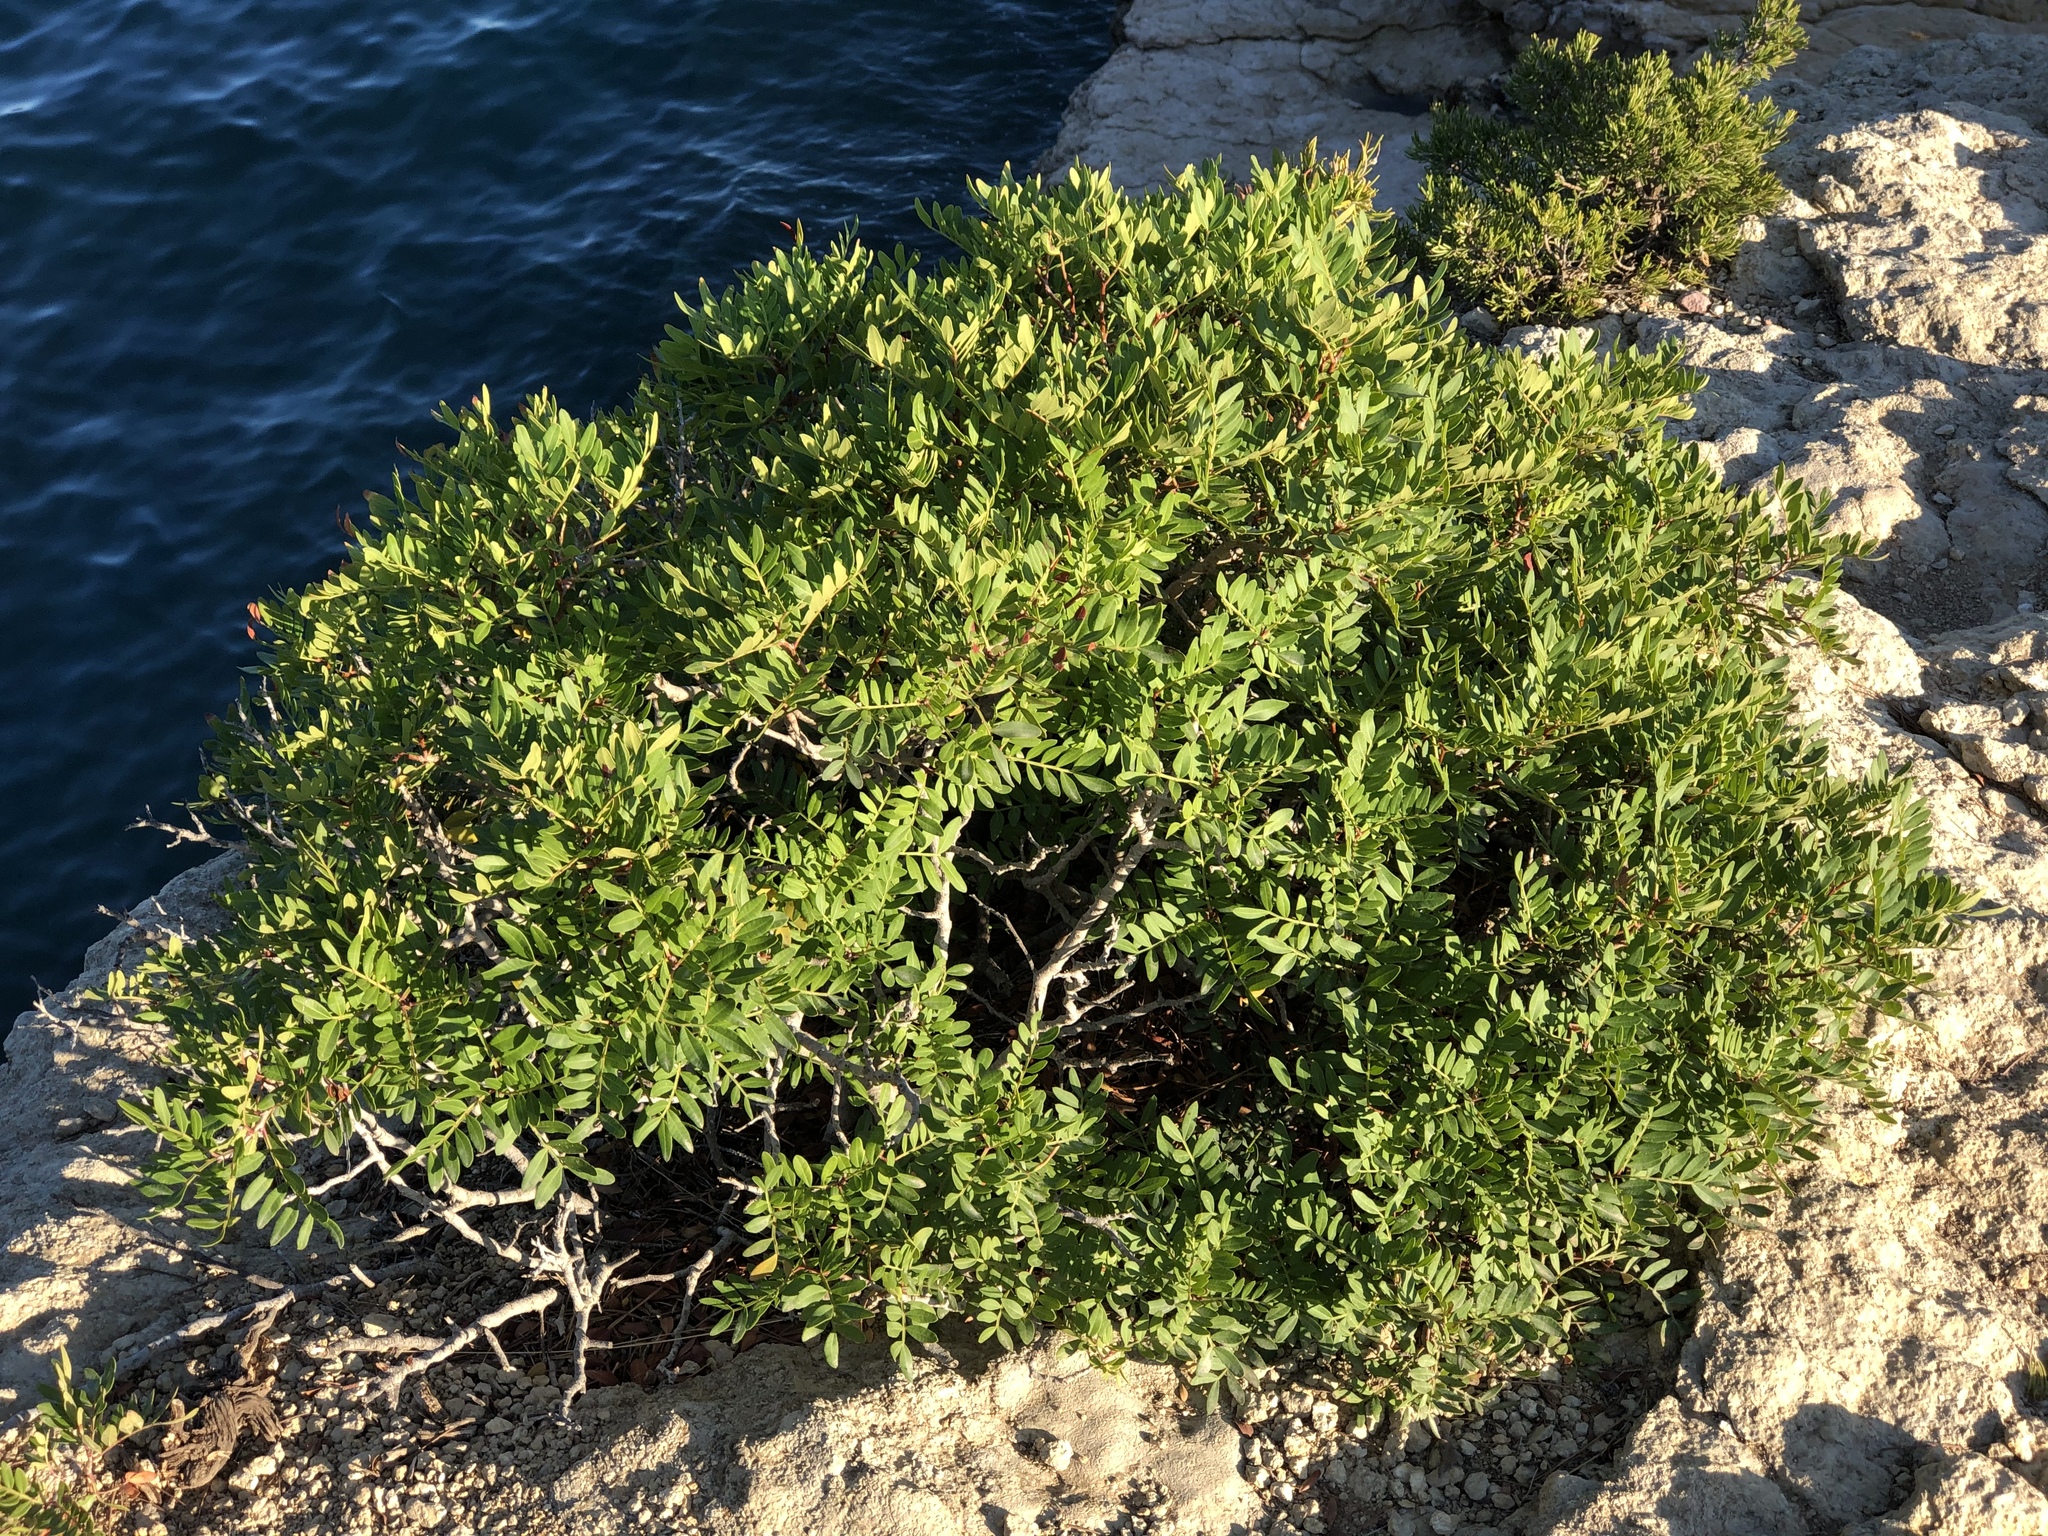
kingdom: Plantae
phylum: Tracheophyta
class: Magnoliopsida
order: Sapindales
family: Anacardiaceae
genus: Pistacia
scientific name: Pistacia lentiscus
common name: Lentisk
